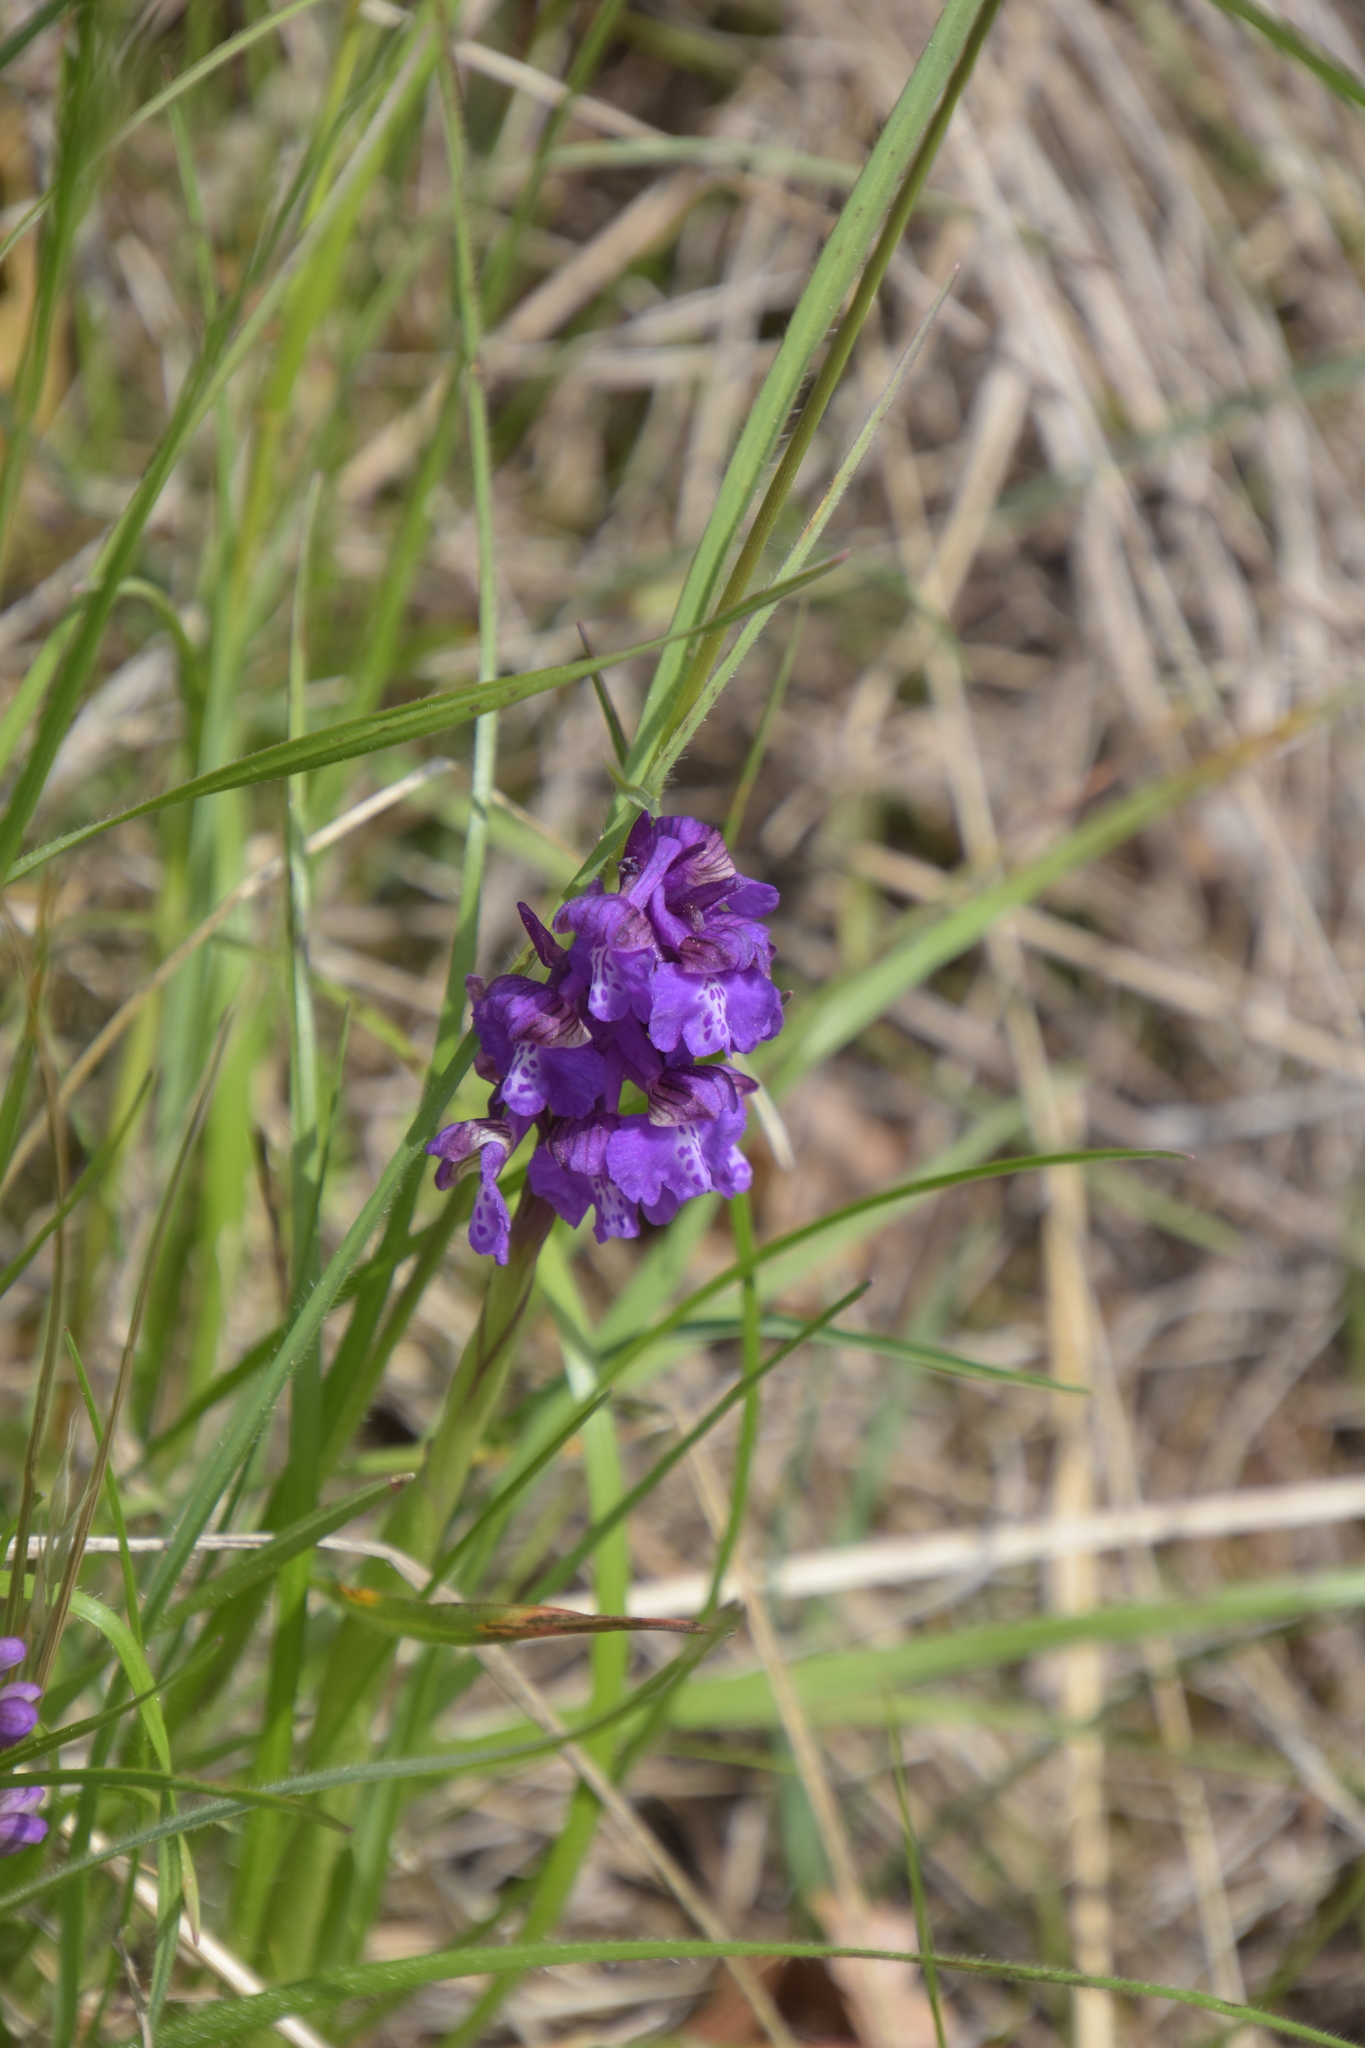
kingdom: Plantae
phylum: Tracheophyta
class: Liliopsida
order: Asparagales
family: Orchidaceae
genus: Anacamptis
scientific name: Anacamptis morio
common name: Green-winged orchid
